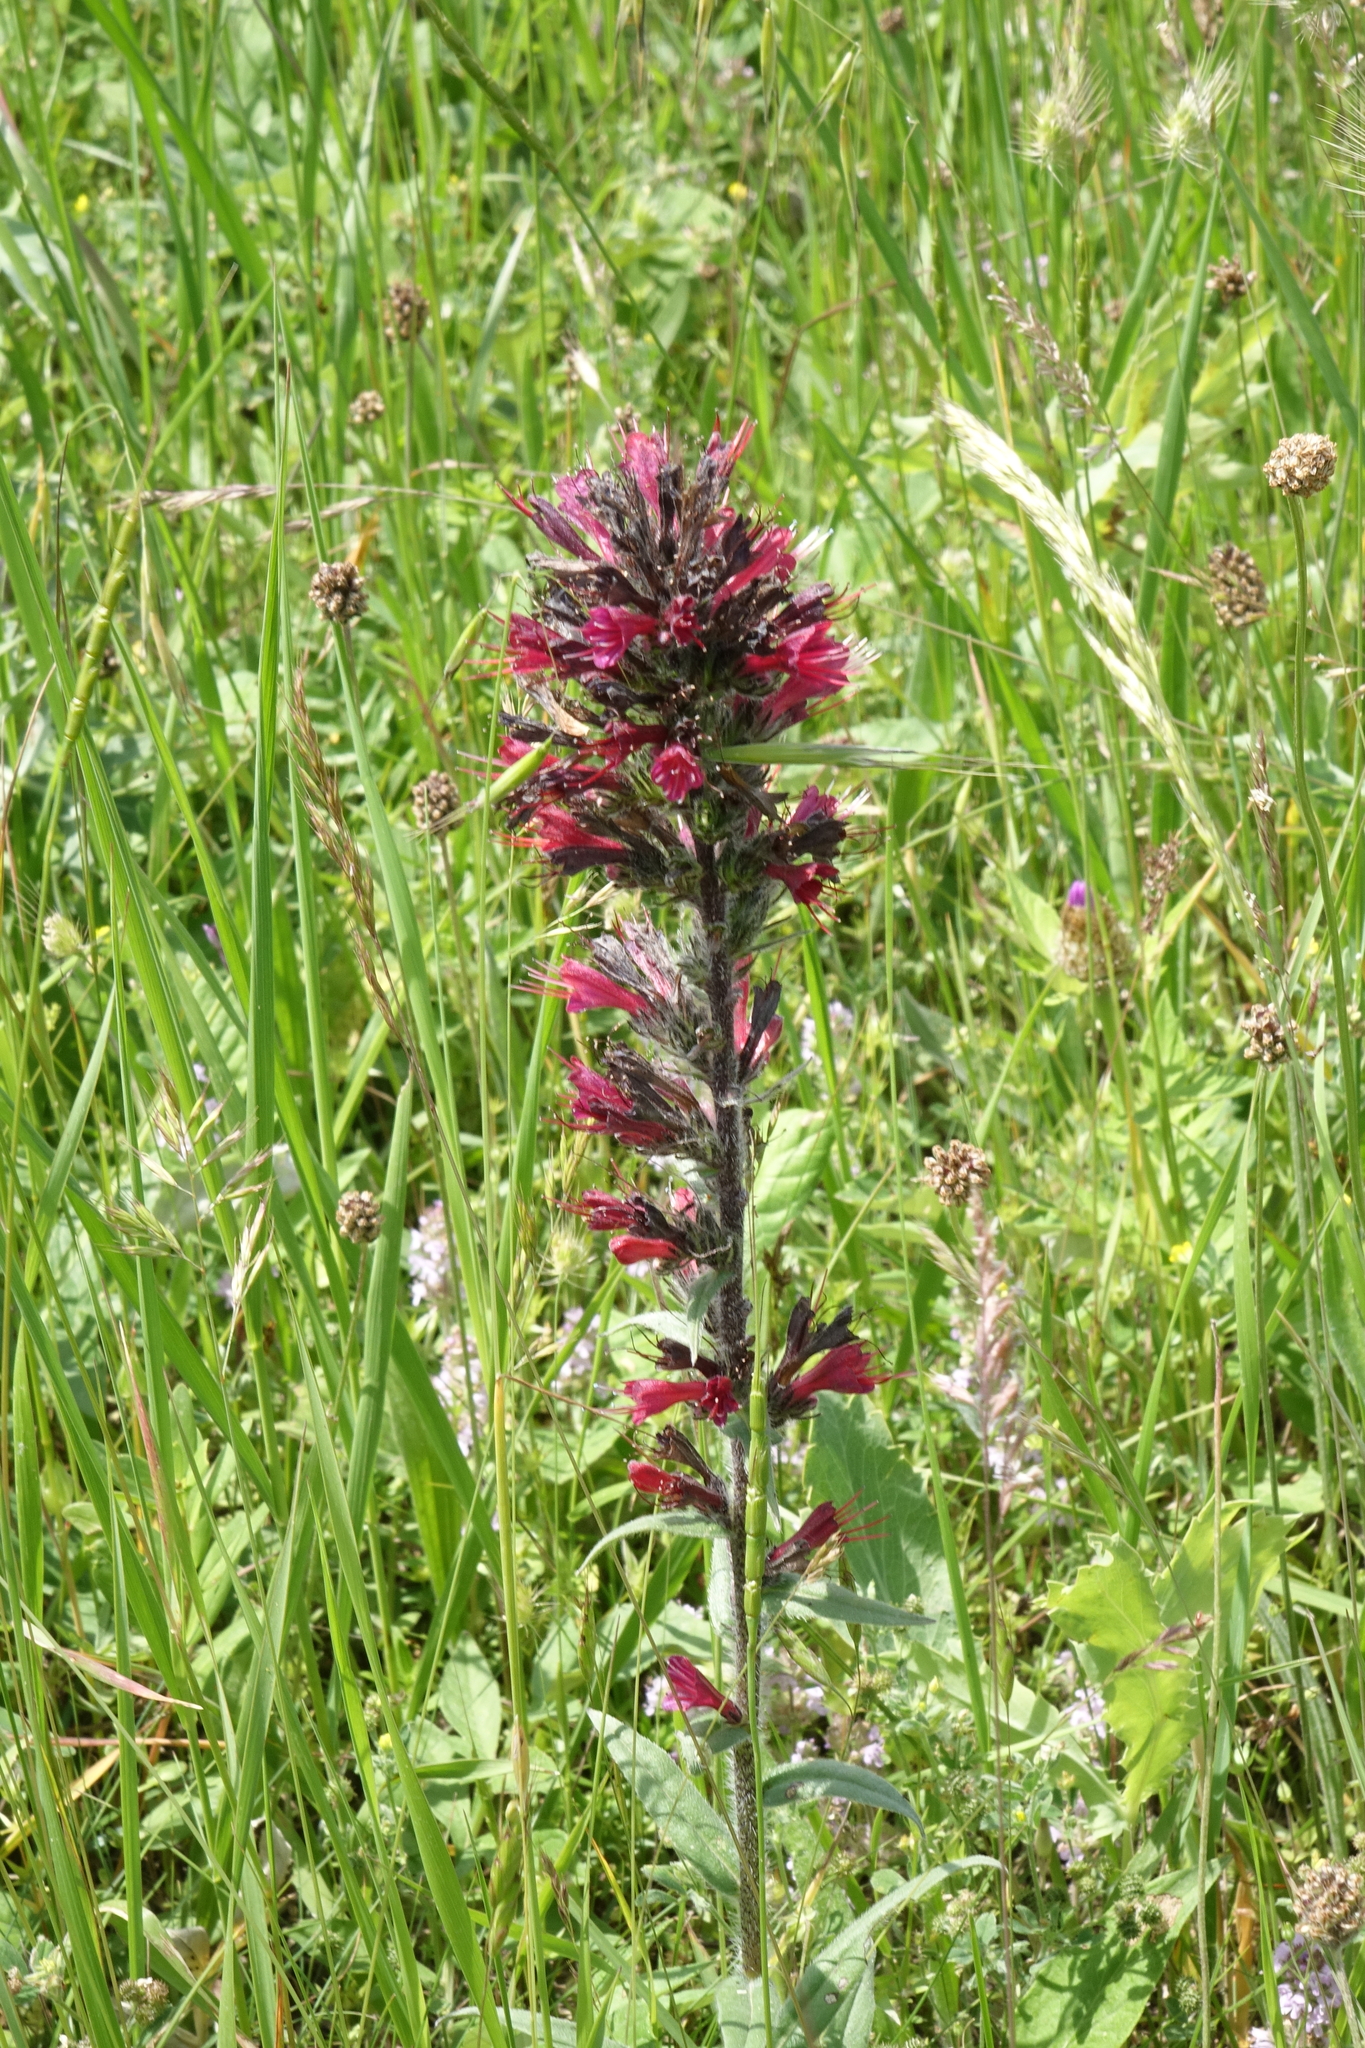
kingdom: Plantae
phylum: Tracheophyta
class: Magnoliopsida
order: Boraginales
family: Boraginaceae
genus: Pontechium
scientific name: Pontechium maculatum
